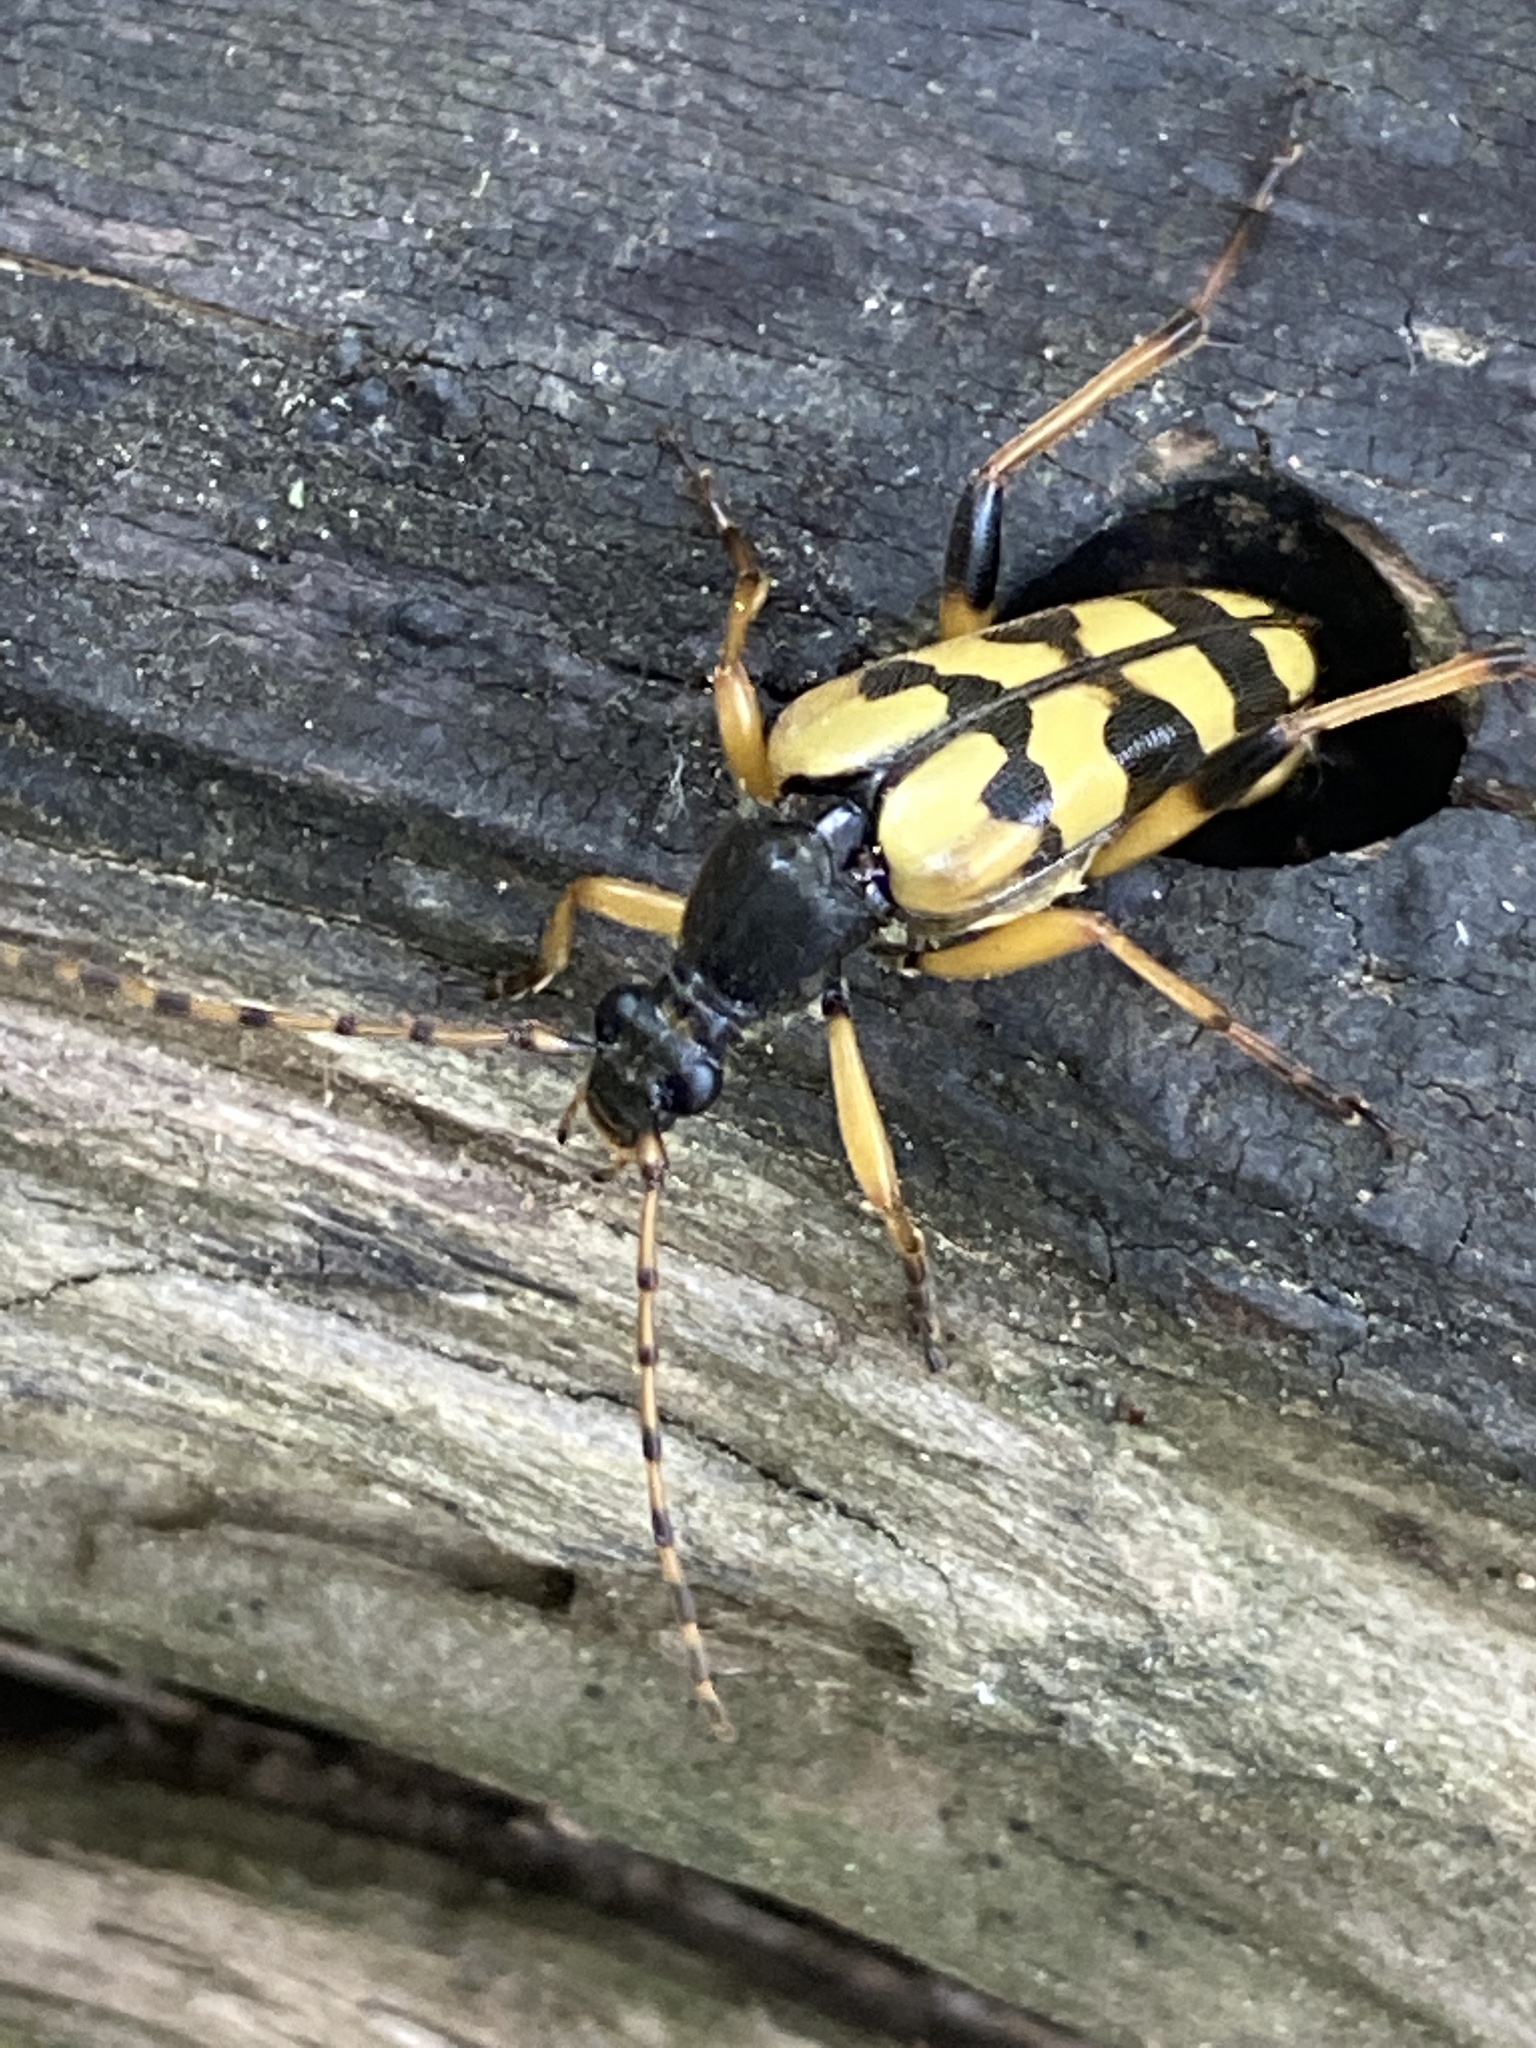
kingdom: Animalia
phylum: Arthropoda
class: Insecta
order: Coleoptera
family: Cerambycidae
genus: Rutpela
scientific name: Rutpela maculata
